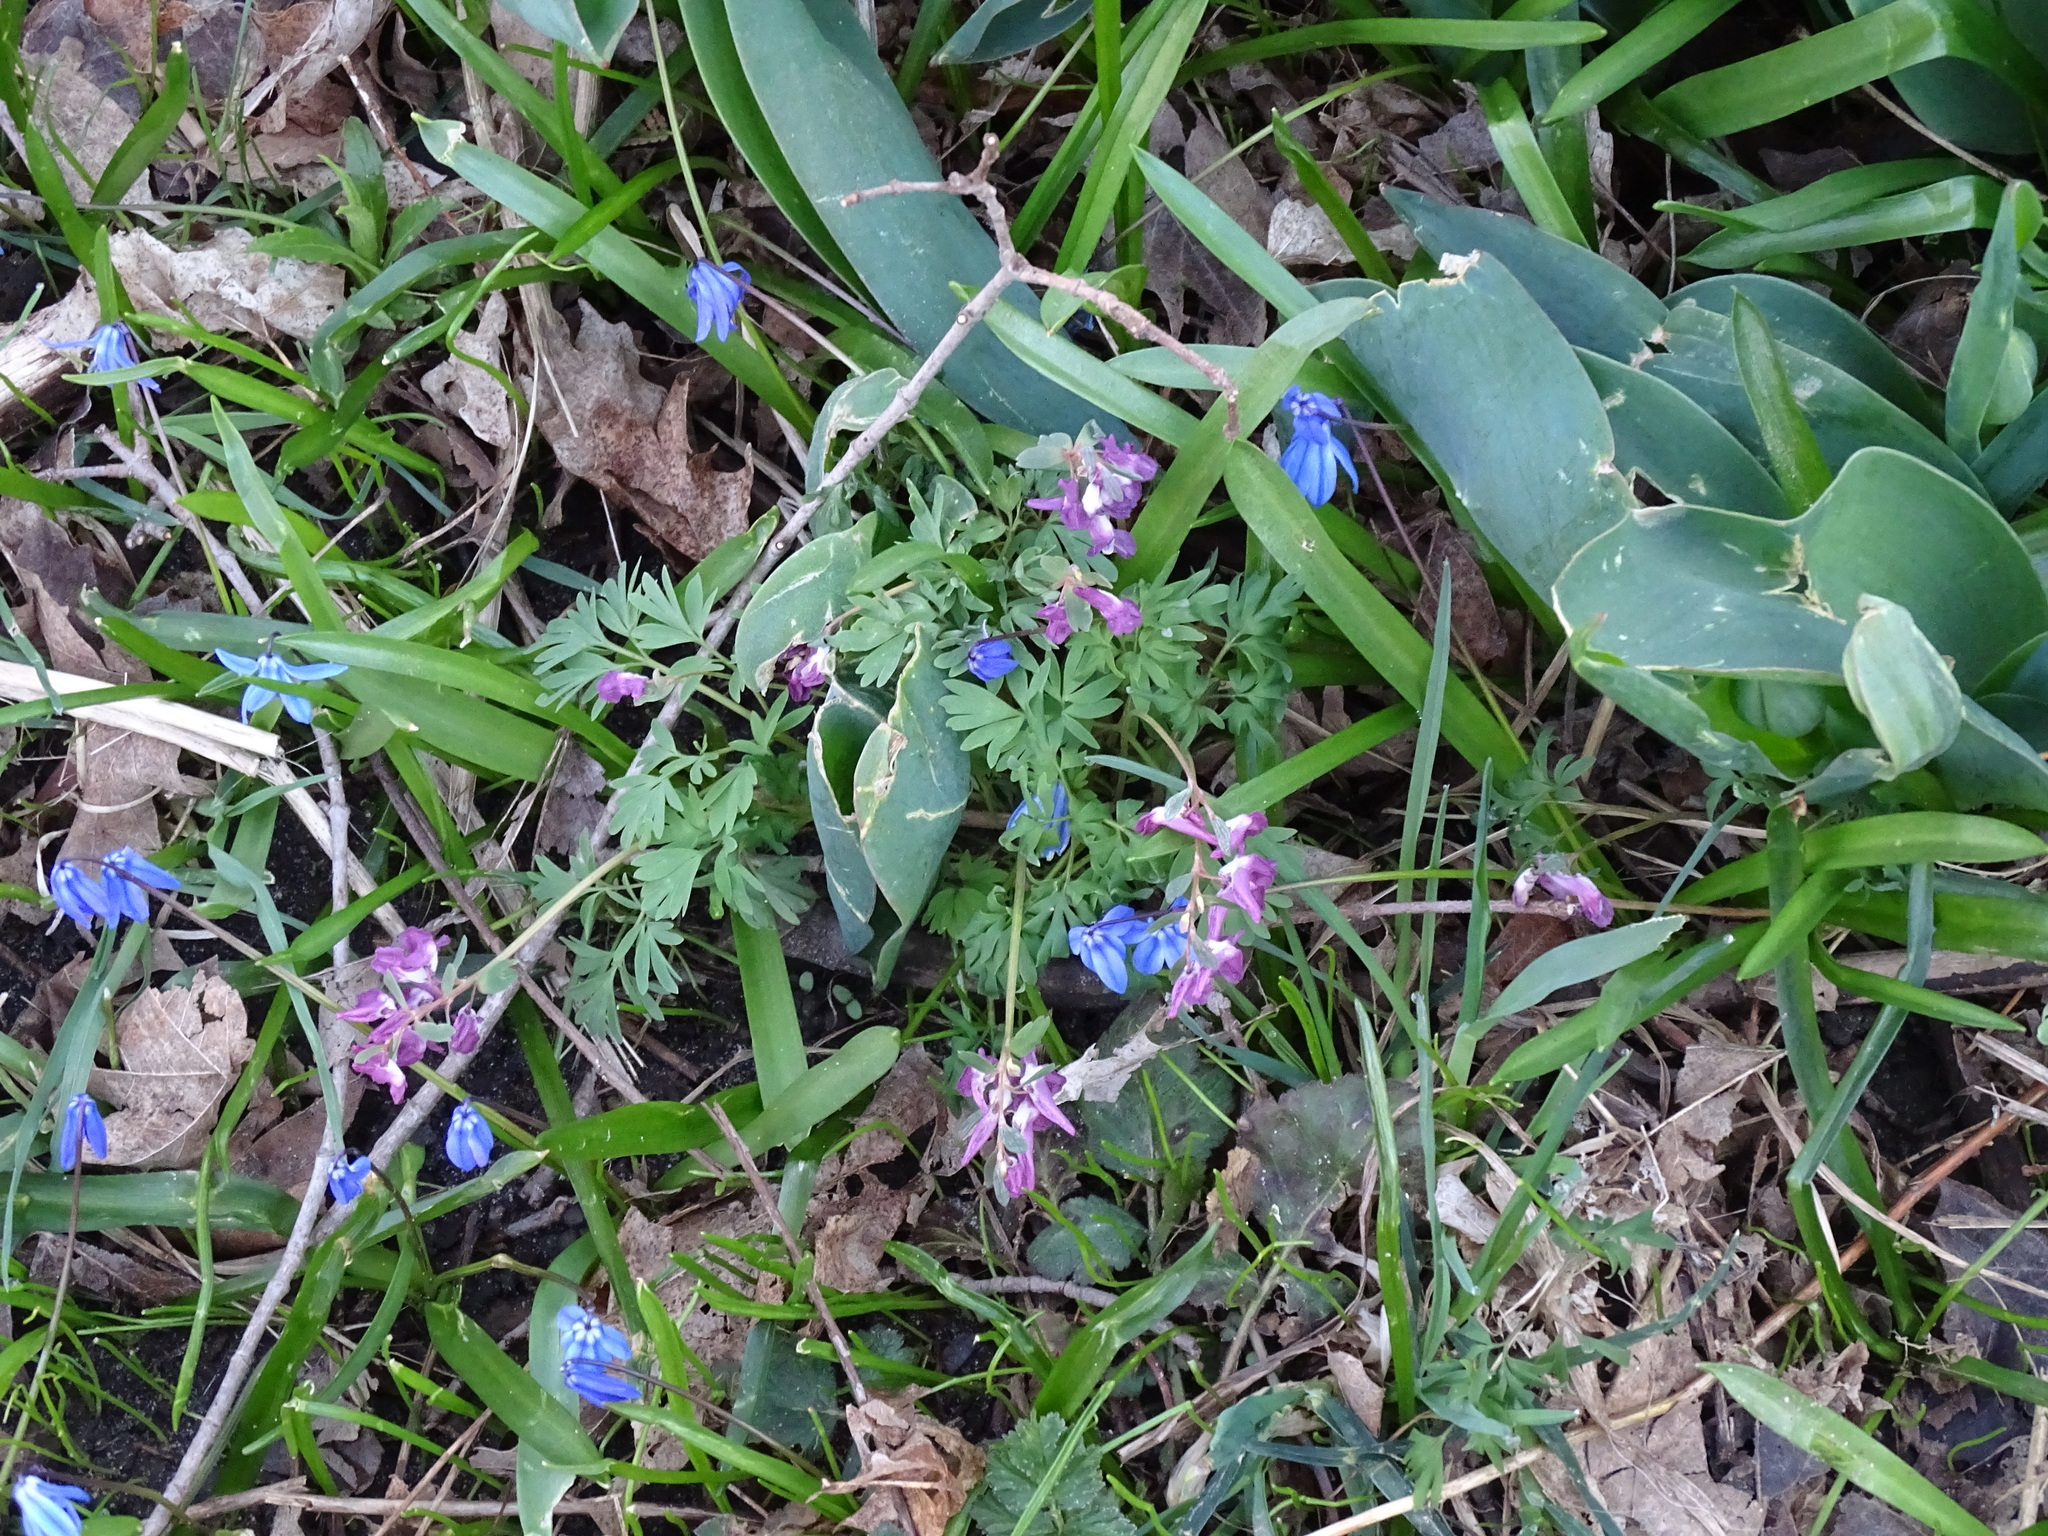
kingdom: Plantae
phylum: Tracheophyta
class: Magnoliopsida
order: Ranunculales
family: Papaveraceae
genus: Corydalis
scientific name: Corydalis solida
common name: Bird-in-a-bush
